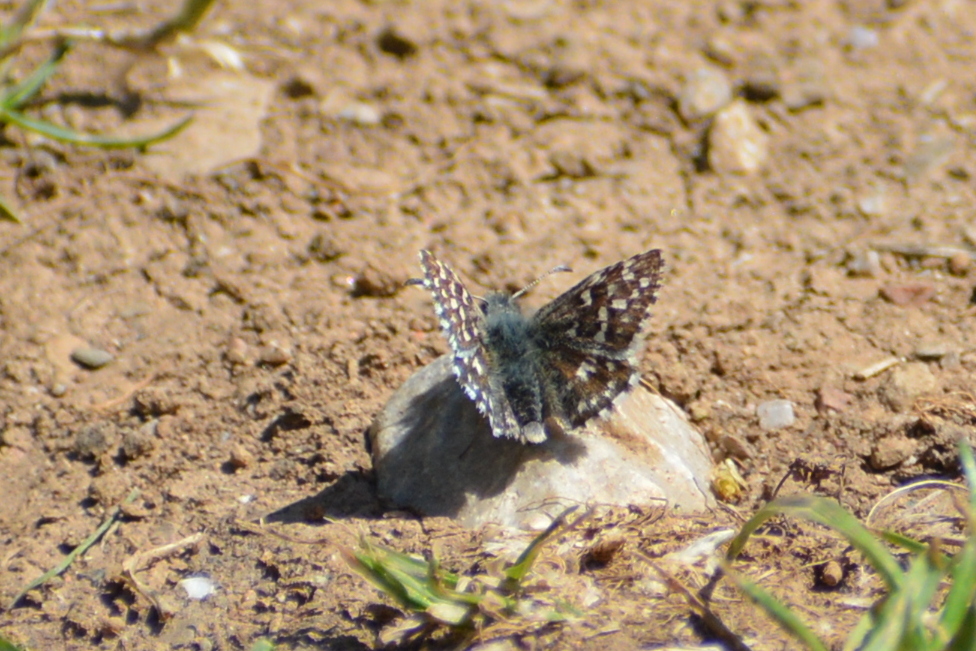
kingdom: Animalia
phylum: Arthropoda
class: Insecta
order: Lepidoptera
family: Hesperiidae
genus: Pyrgus
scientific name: Pyrgus malvae
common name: Grizzled skipper
